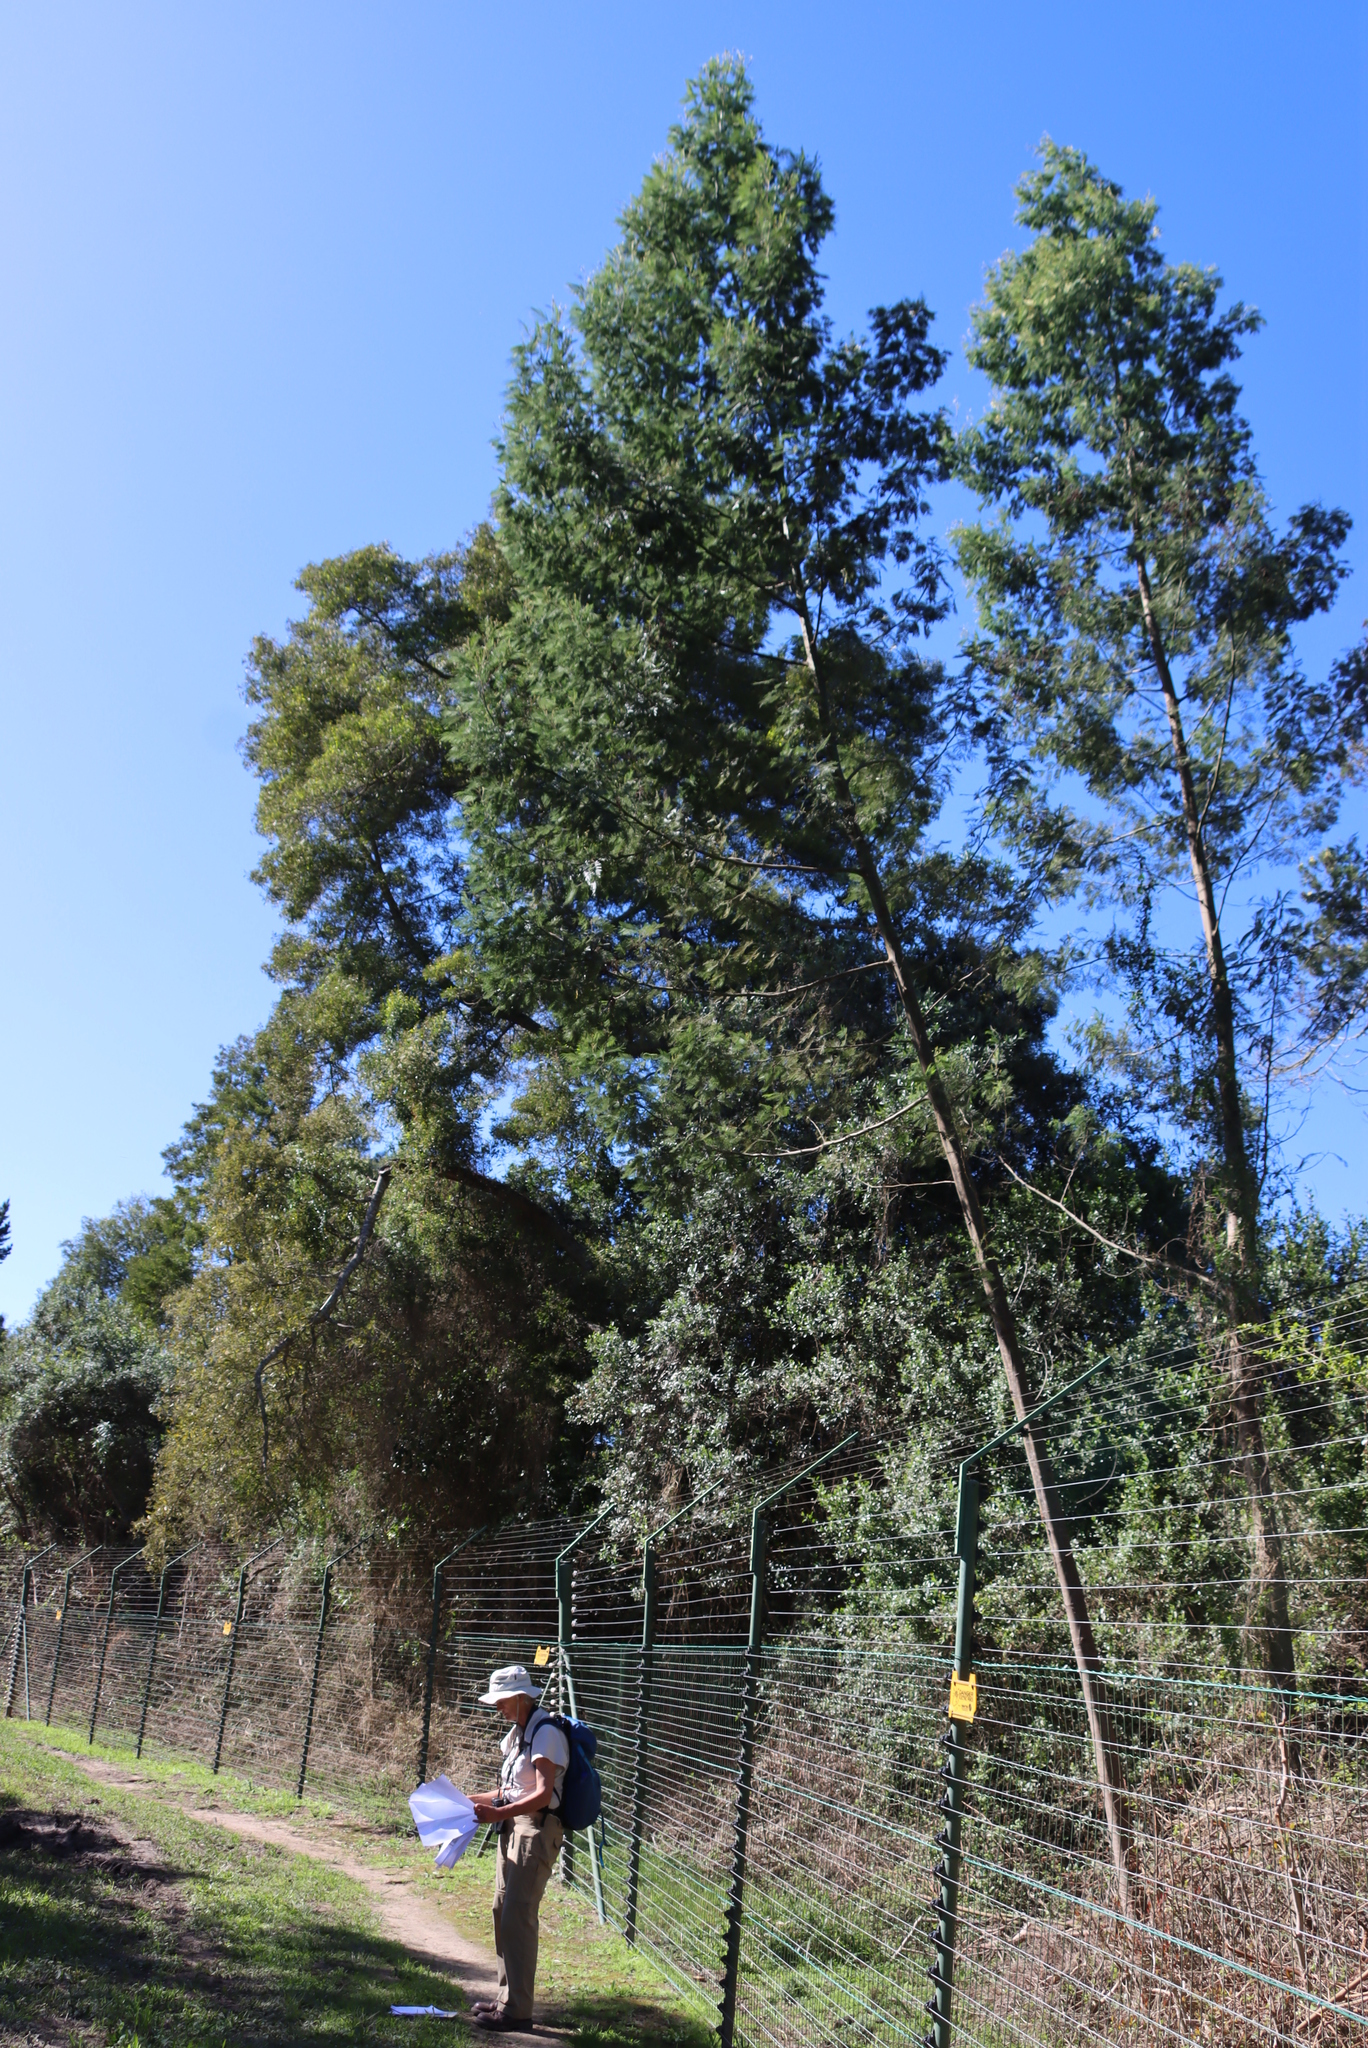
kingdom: Plantae
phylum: Tracheophyta
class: Magnoliopsida
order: Fabales
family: Fabaceae
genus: Acacia
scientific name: Acacia mearnsii
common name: Black wattle
